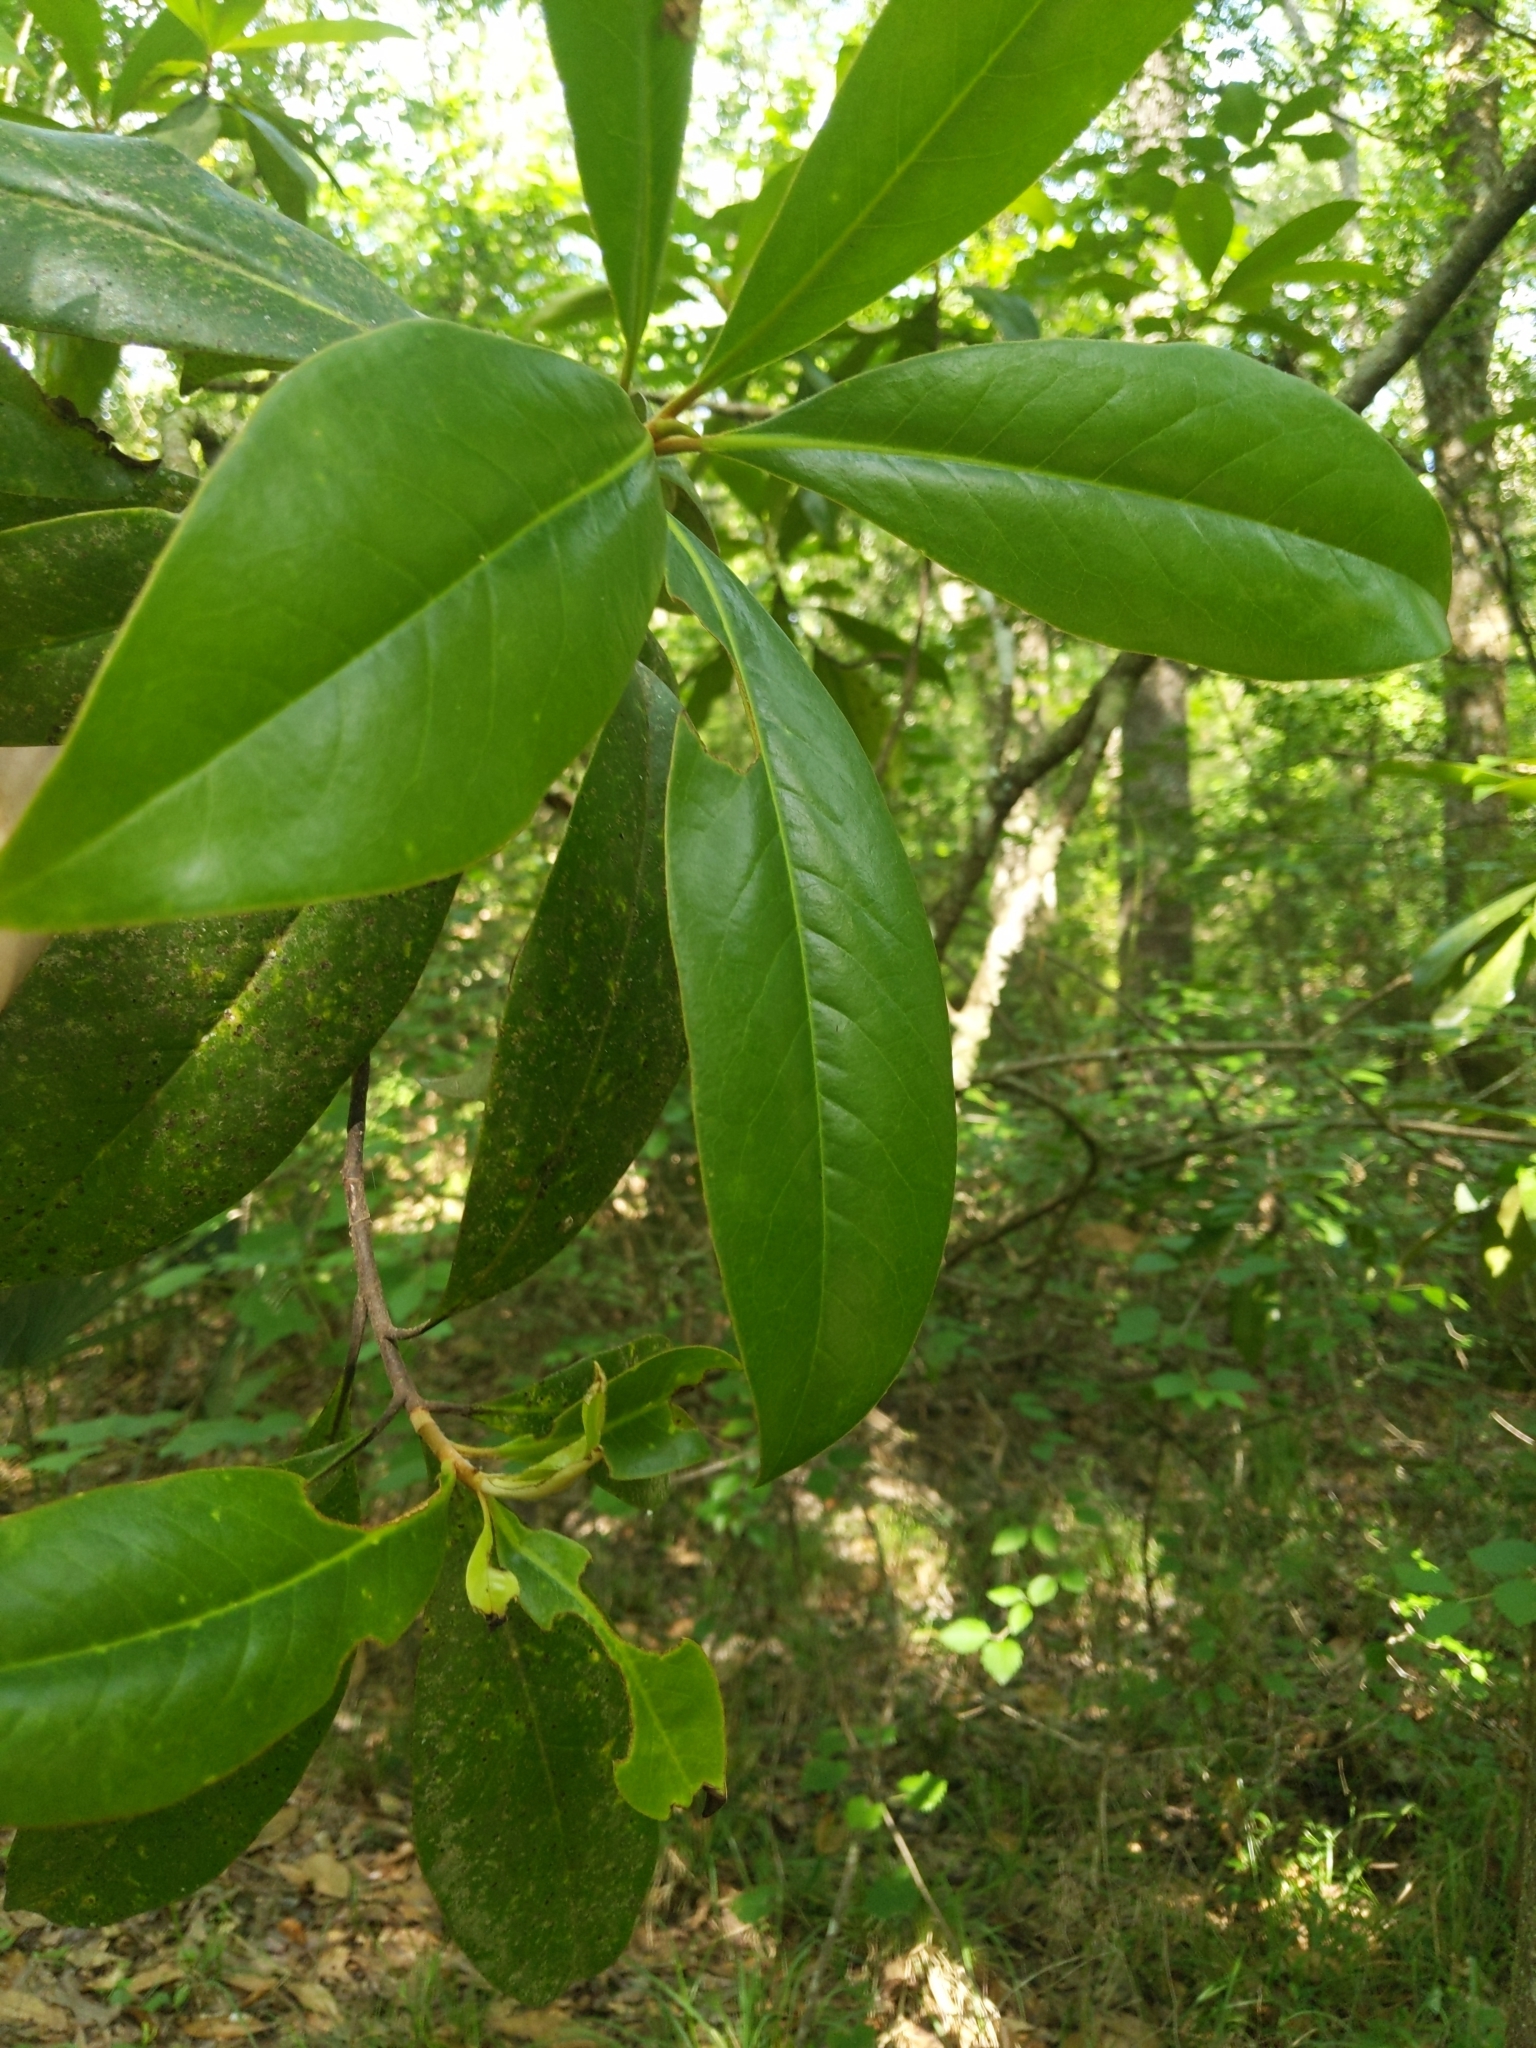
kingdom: Plantae
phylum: Tracheophyta
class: Magnoliopsida
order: Magnoliales
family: Magnoliaceae
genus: Magnolia
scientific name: Magnolia grandiflora
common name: Southern magnolia
